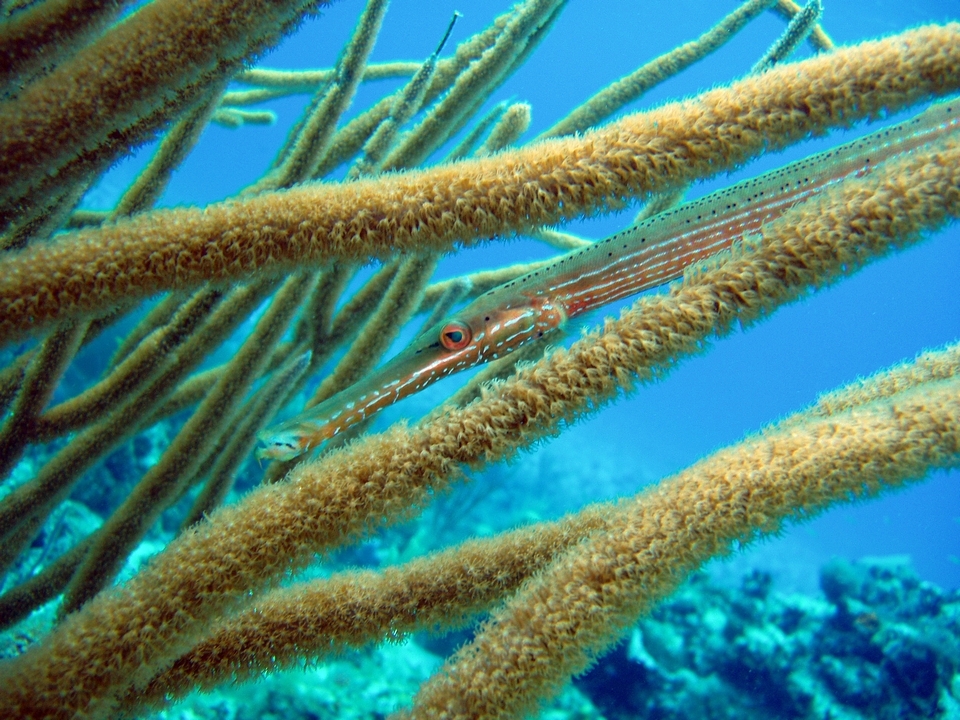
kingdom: Animalia
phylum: Chordata
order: Syngnathiformes
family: Aulostomidae
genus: Aulostomus
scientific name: Aulostomus maculatus
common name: West atlantic trumpetfish
